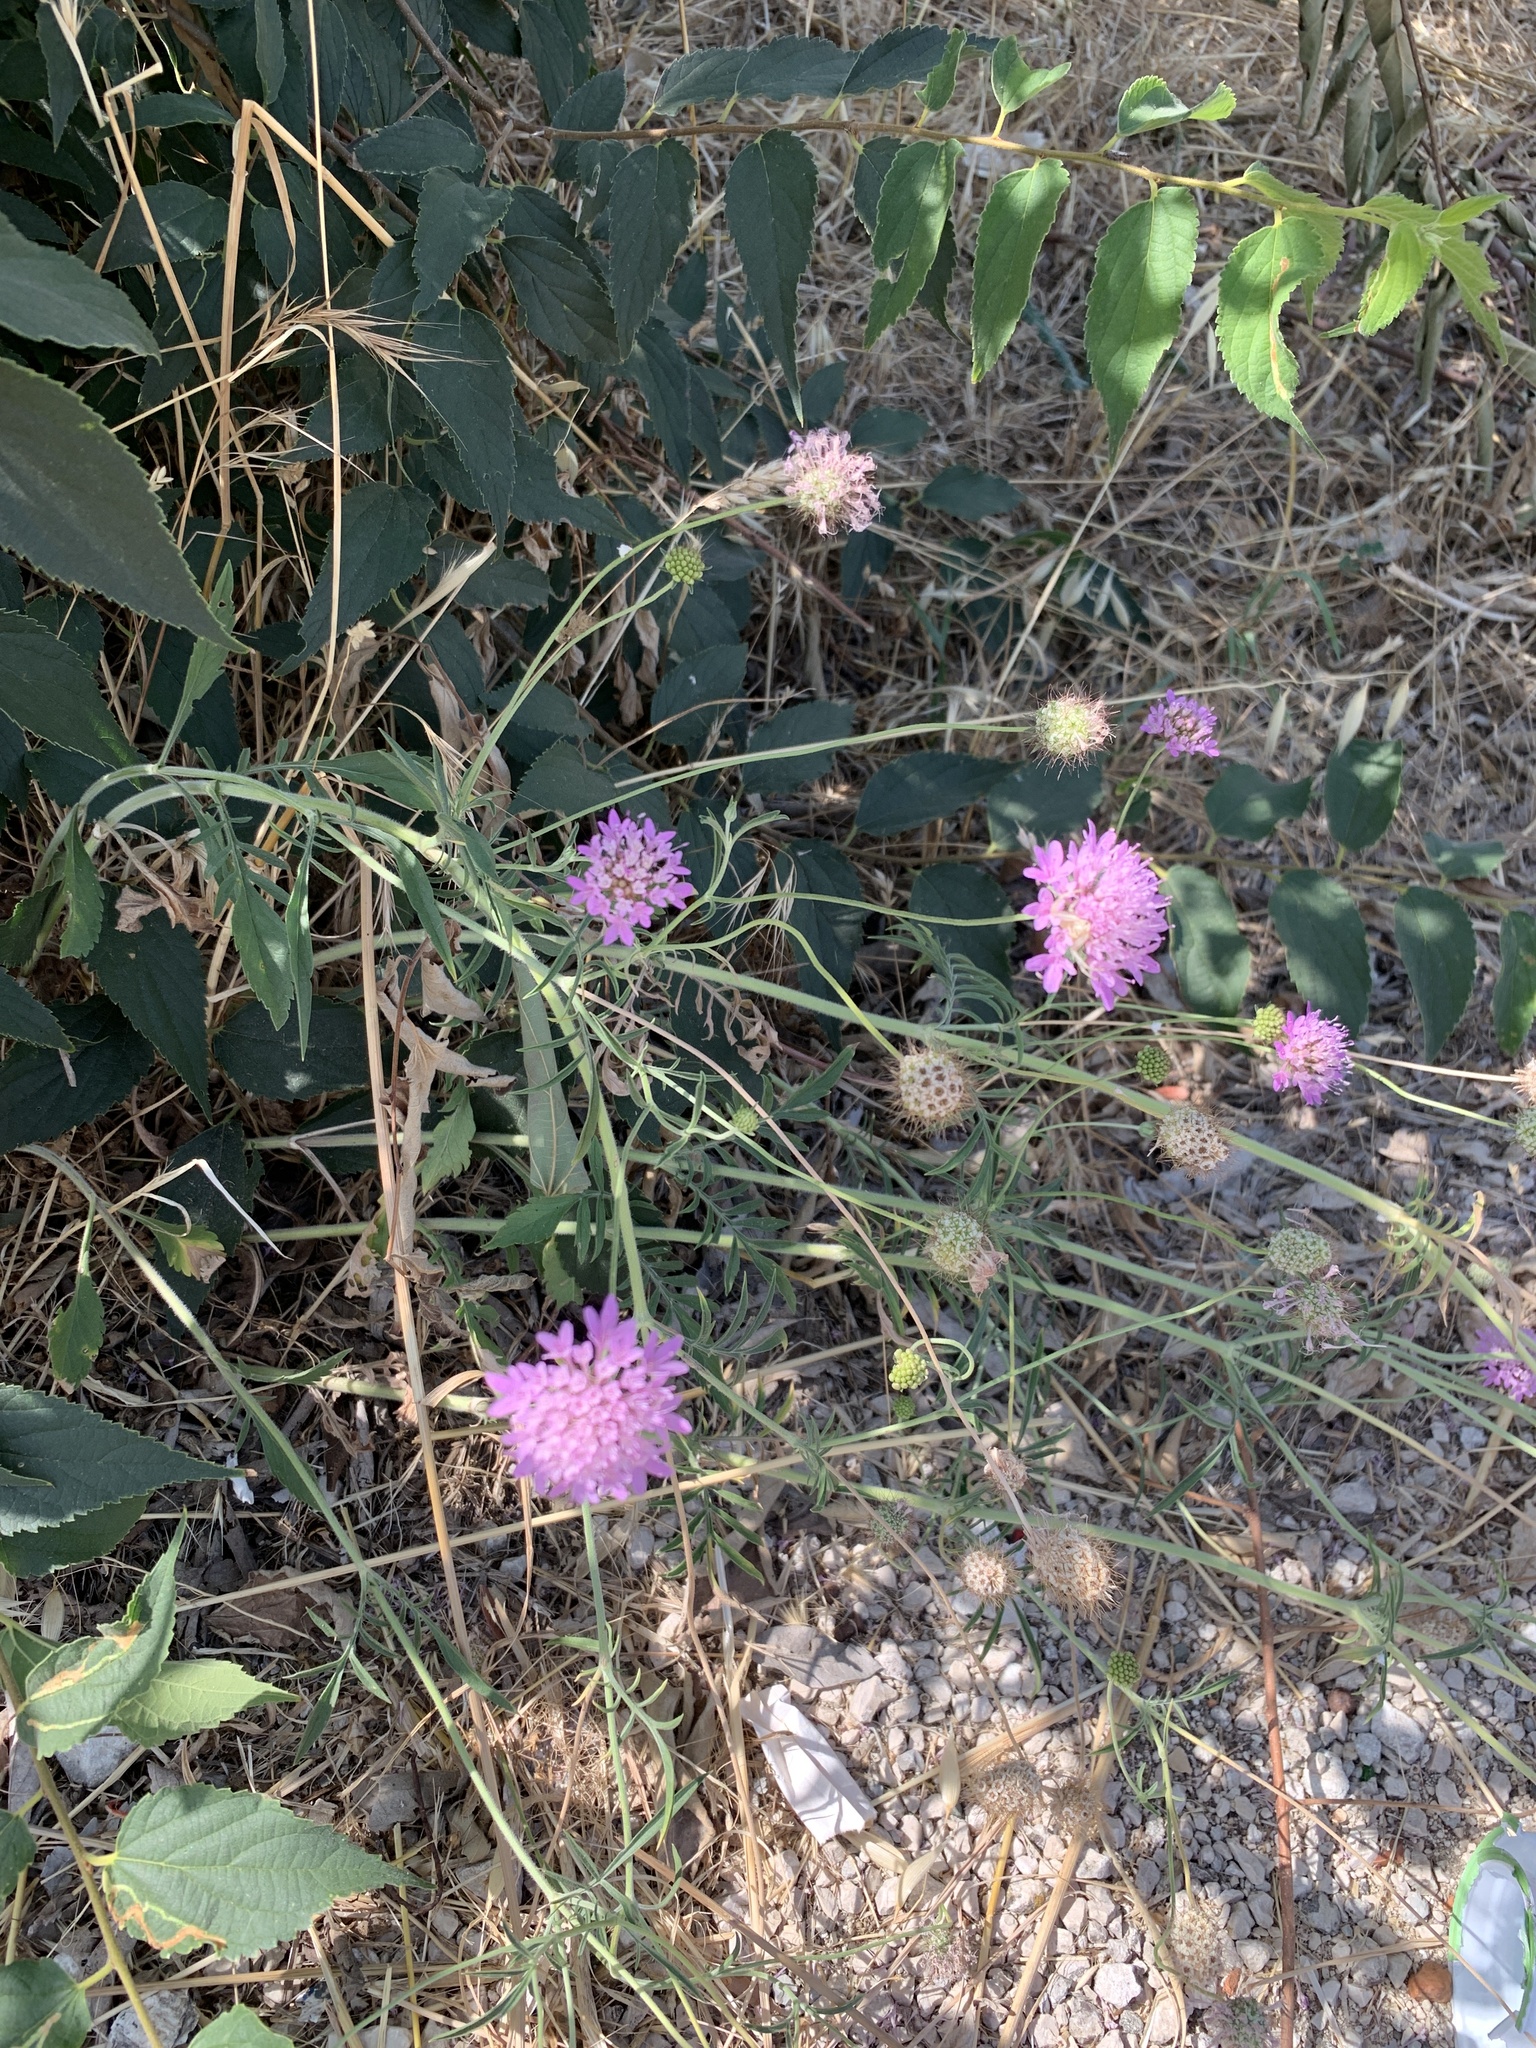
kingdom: Plantae
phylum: Tracheophyta
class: Magnoliopsida
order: Dipsacales
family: Caprifoliaceae
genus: Sixalix
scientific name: Sixalix atropurpurea
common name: Sweet scabious
